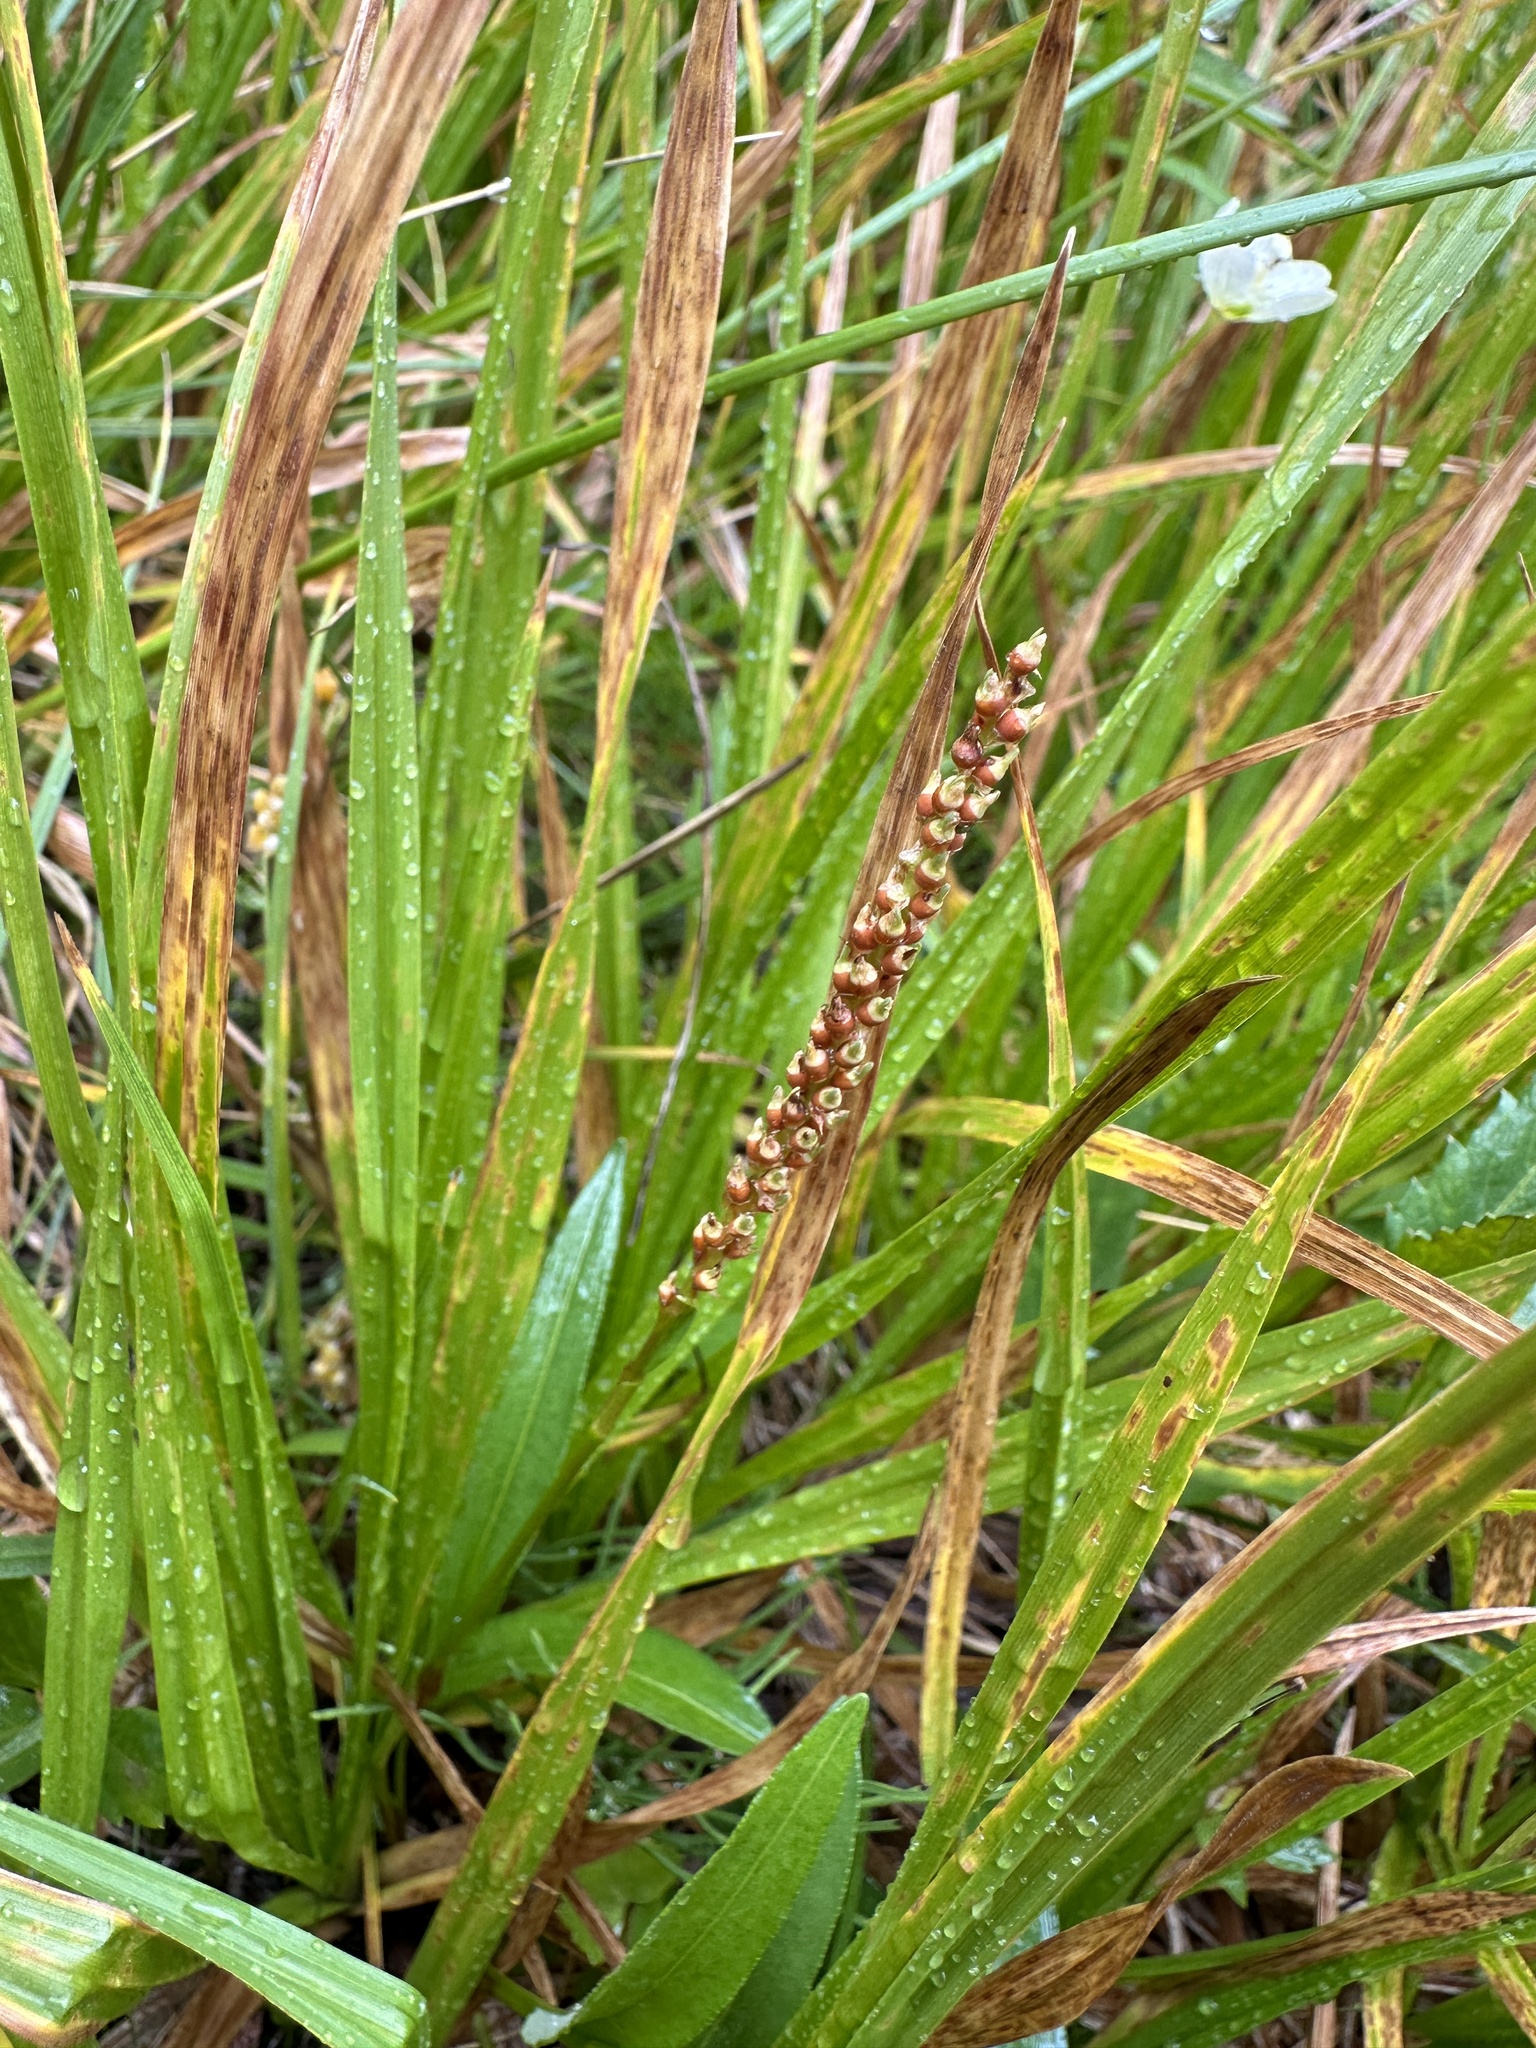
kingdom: Plantae
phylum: Tracheophyta
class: Magnoliopsida
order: Caryophyllales
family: Polygonaceae
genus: Bistorta
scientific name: Bistorta vivipara
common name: Alpine bistort
